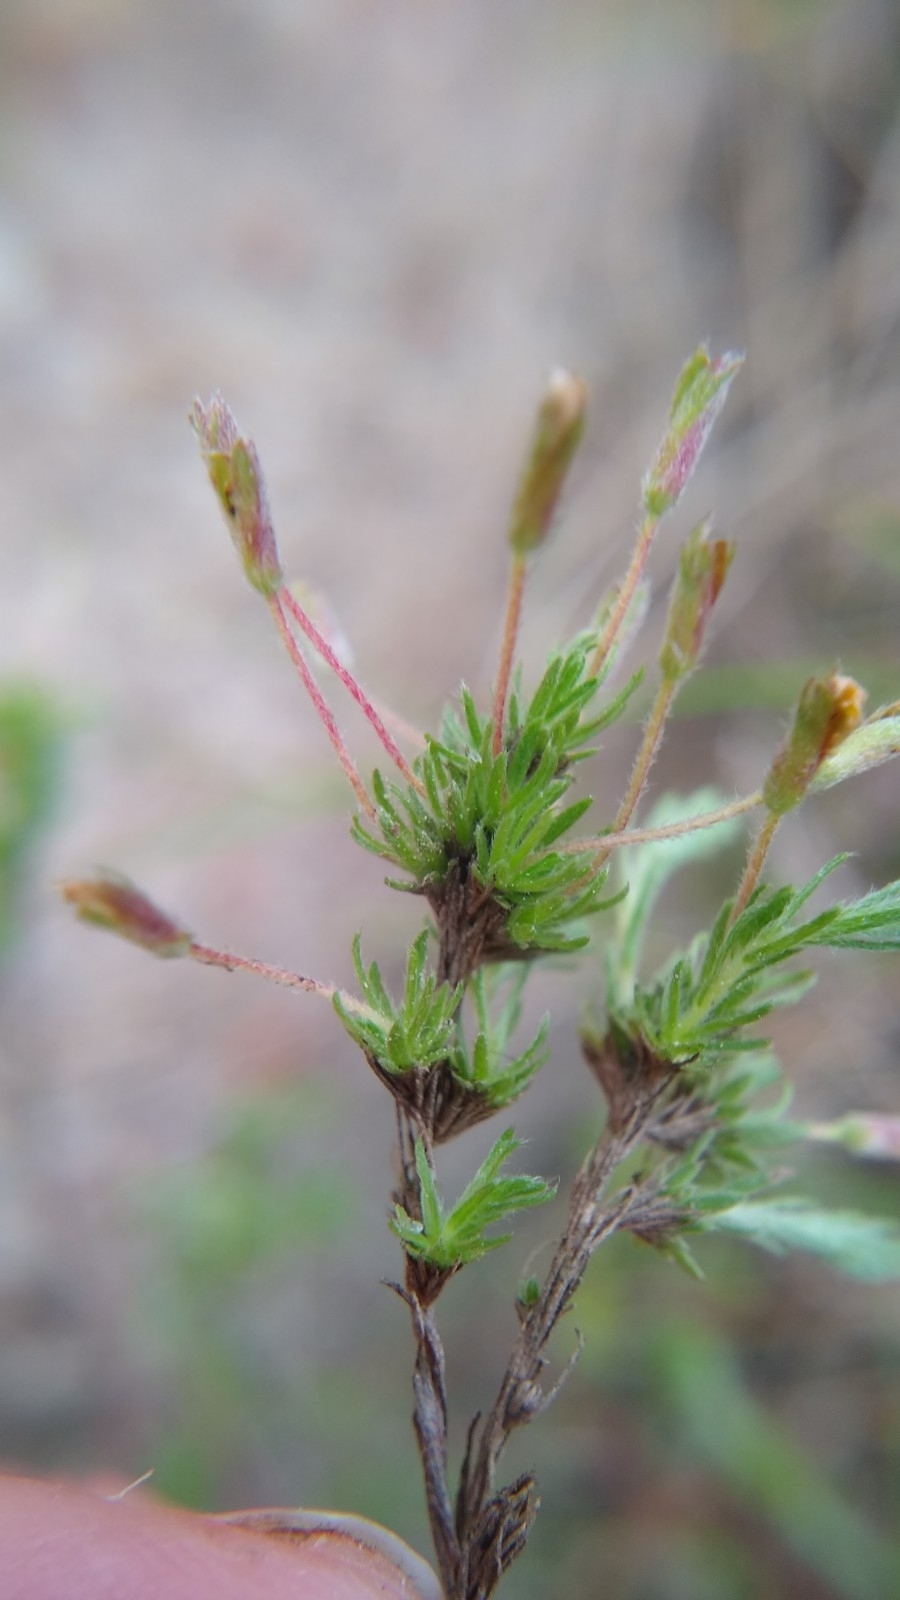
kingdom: Plantae
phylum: Tracheophyta
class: Magnoliopsida
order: Malvales
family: Cistaceae
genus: Hudsonia
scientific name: Hudsonia ericoides
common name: Golden-heather
